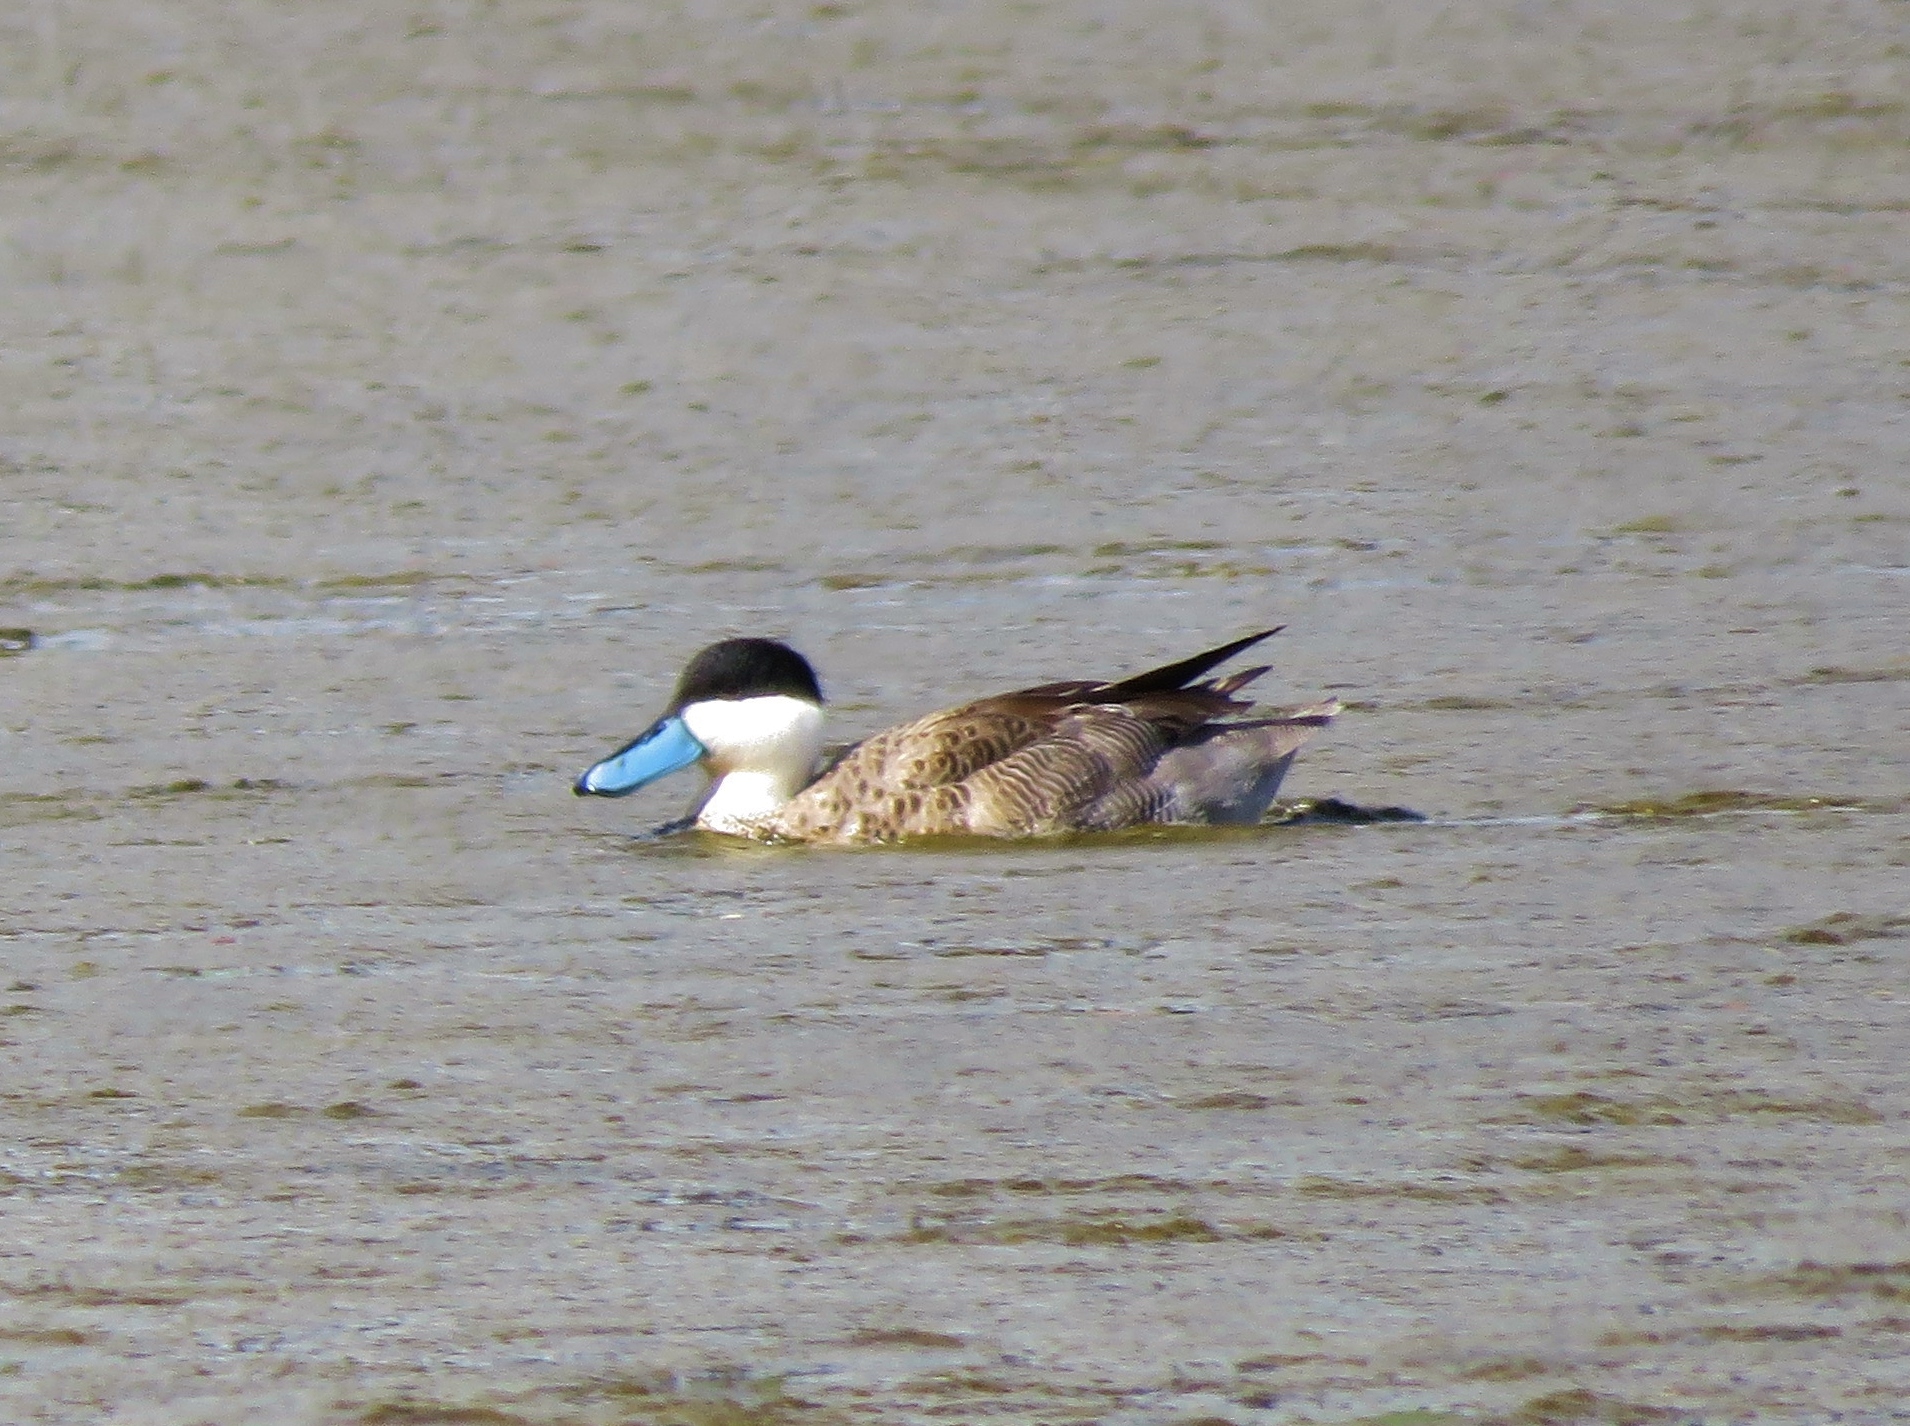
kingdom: Animalia
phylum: Chordata
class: Aves
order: Anseriformes
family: Anatidae
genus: Spatula
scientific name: Spatula puna
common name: Puna teal
